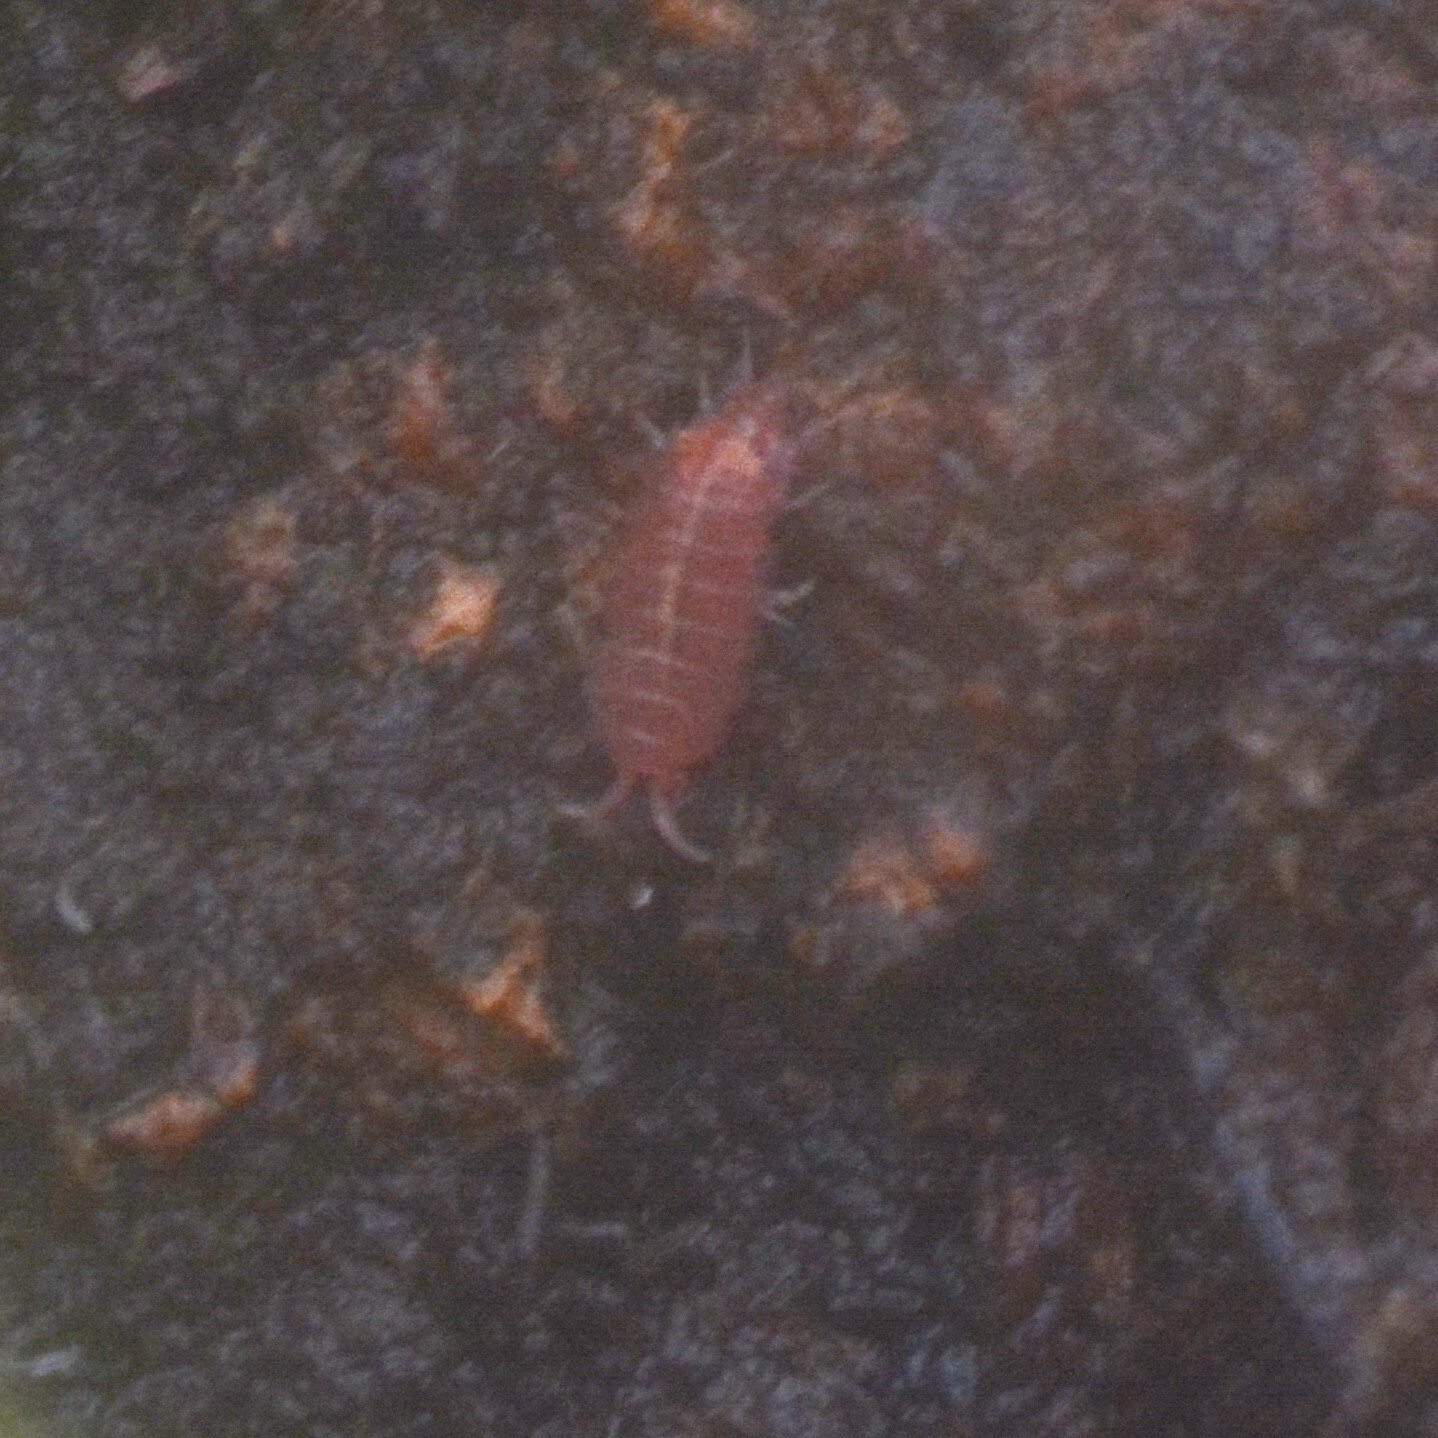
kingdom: Animalia
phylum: Arthropoda
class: Malacostraca
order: Isopoda
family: Trichoniscidae
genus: Androniscus
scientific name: Androniscus dentiger
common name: Rosy woodlouse
